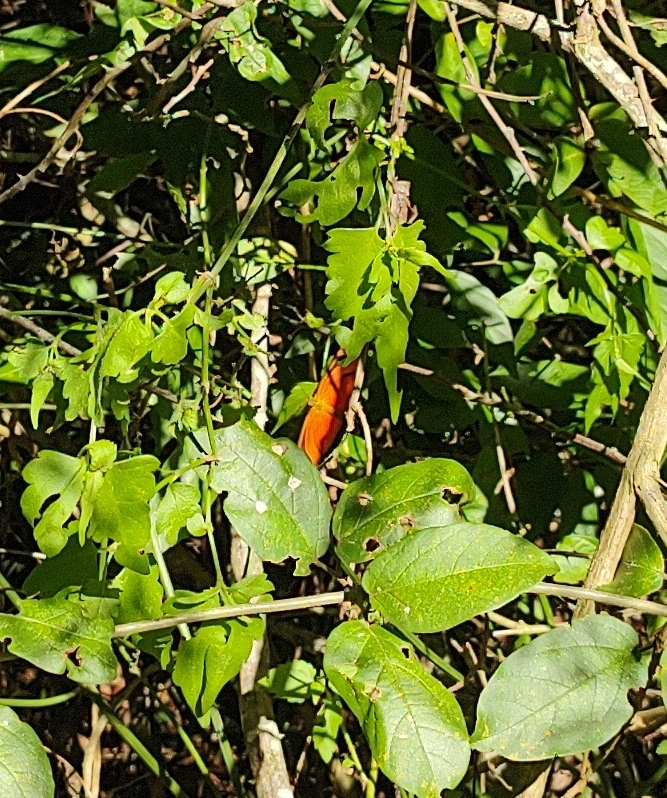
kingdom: Animalia
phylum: Arthropoda
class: Insecta
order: Lepidoptera
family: Nymphalidae
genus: Dryas
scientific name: Dryas iulia
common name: Flambeau
